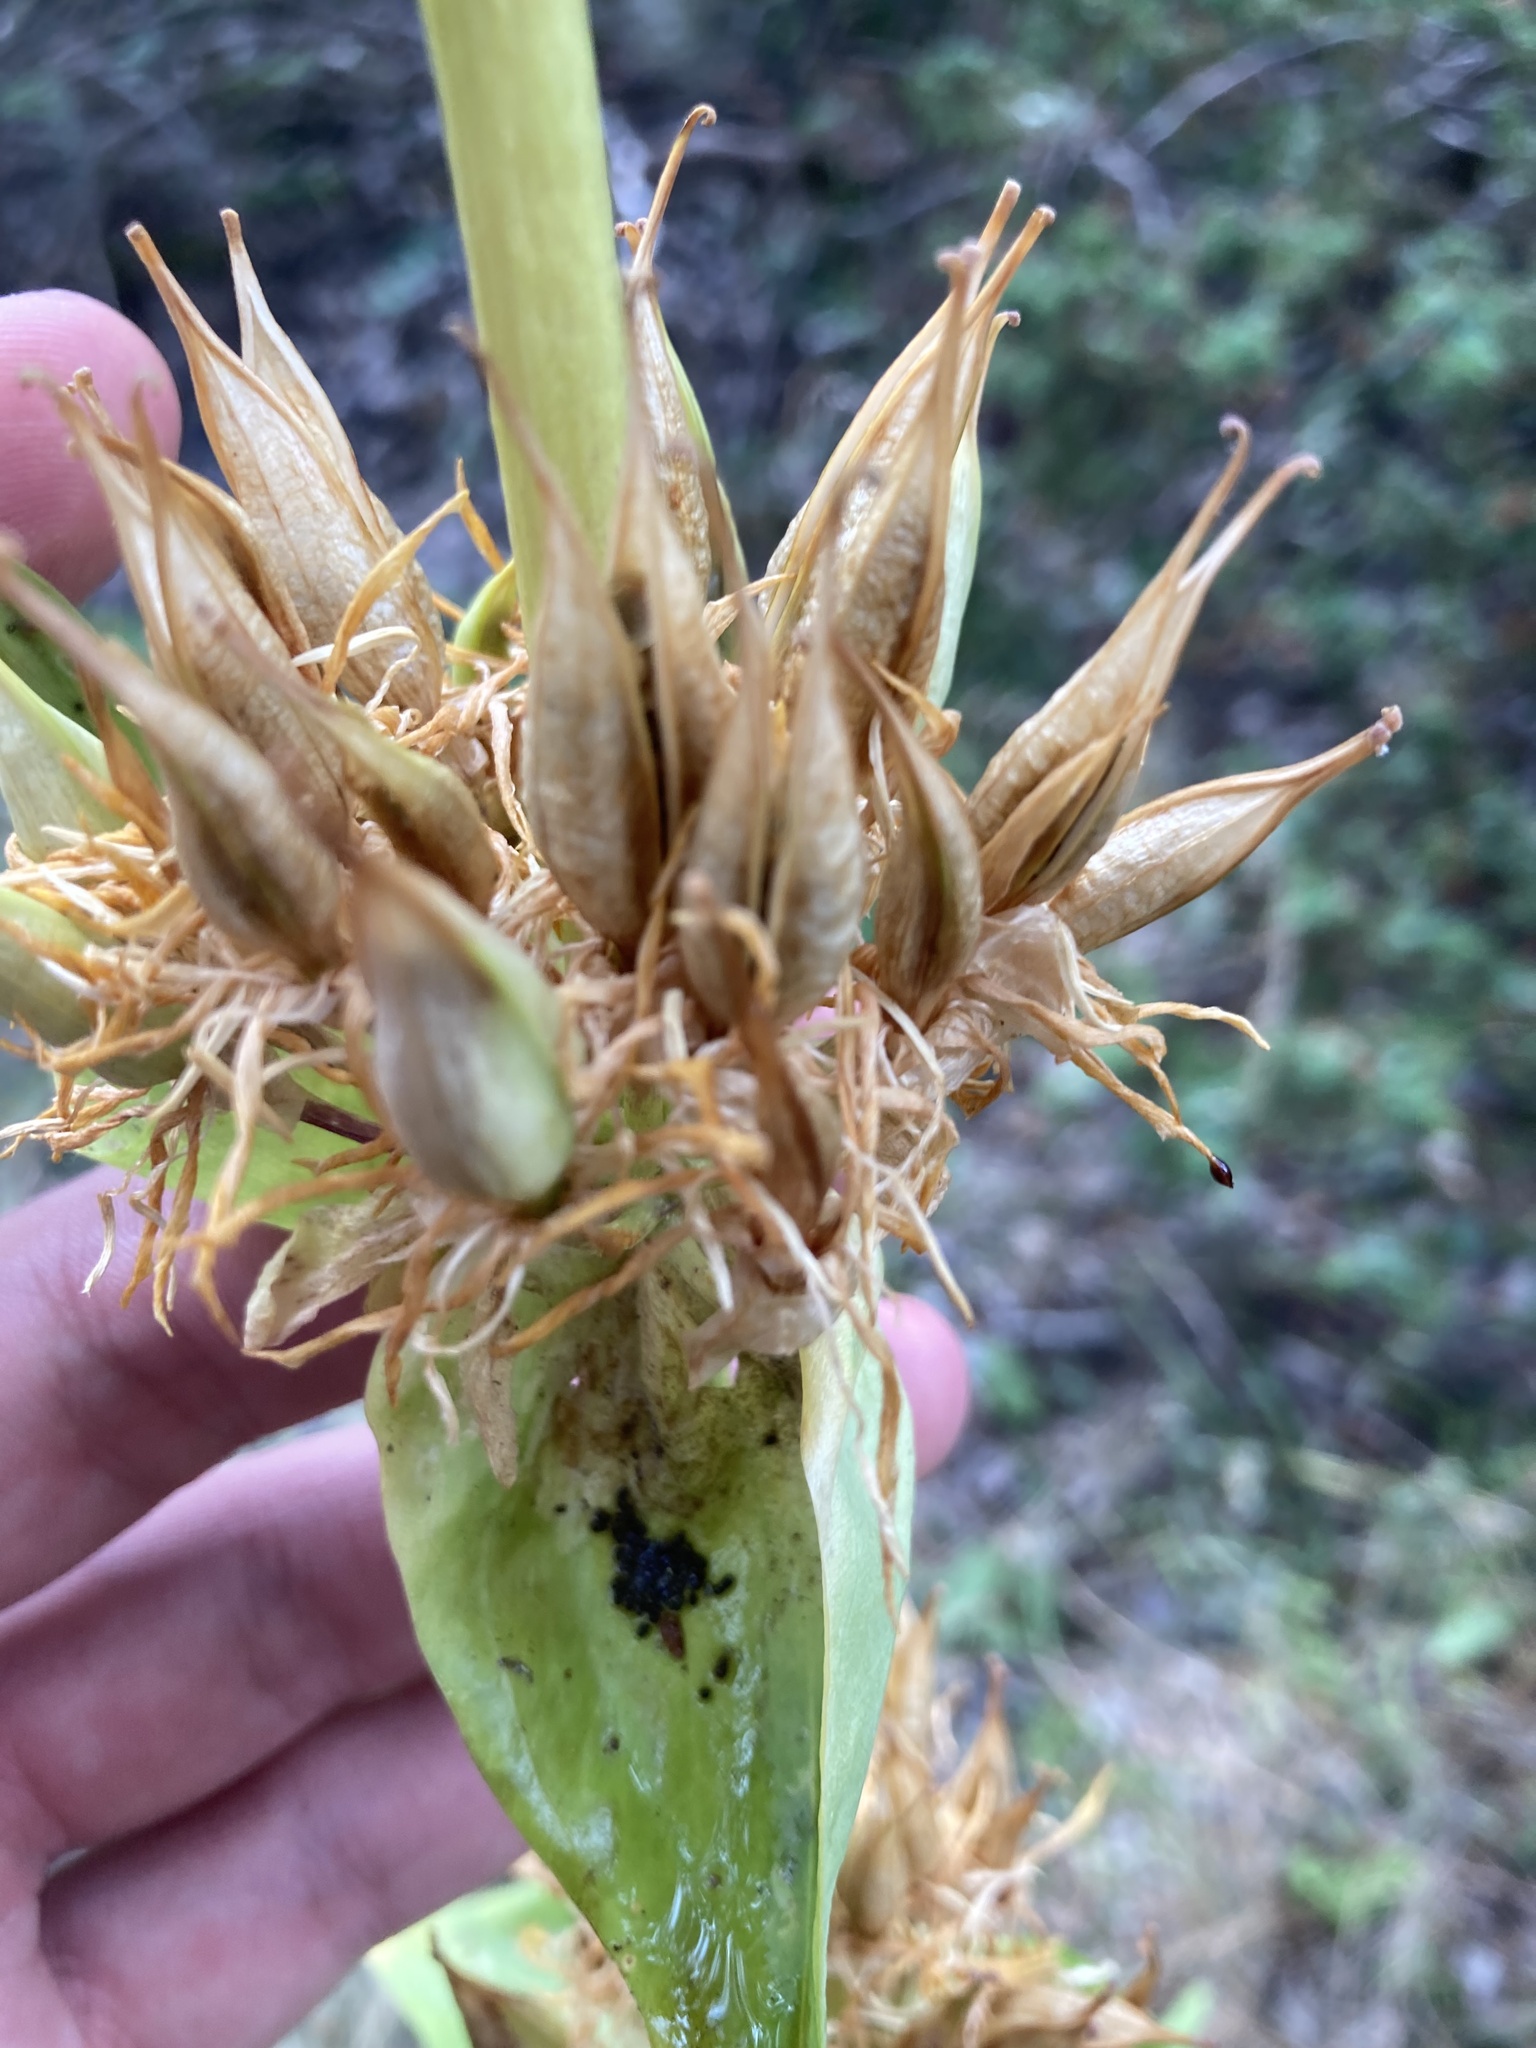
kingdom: Plantae
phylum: Tracheophyta
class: Magnoliopsida
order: Gentianales
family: Gentianaceae
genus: Gentiana
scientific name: Gentiana lutea
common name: Great yellow gentian
